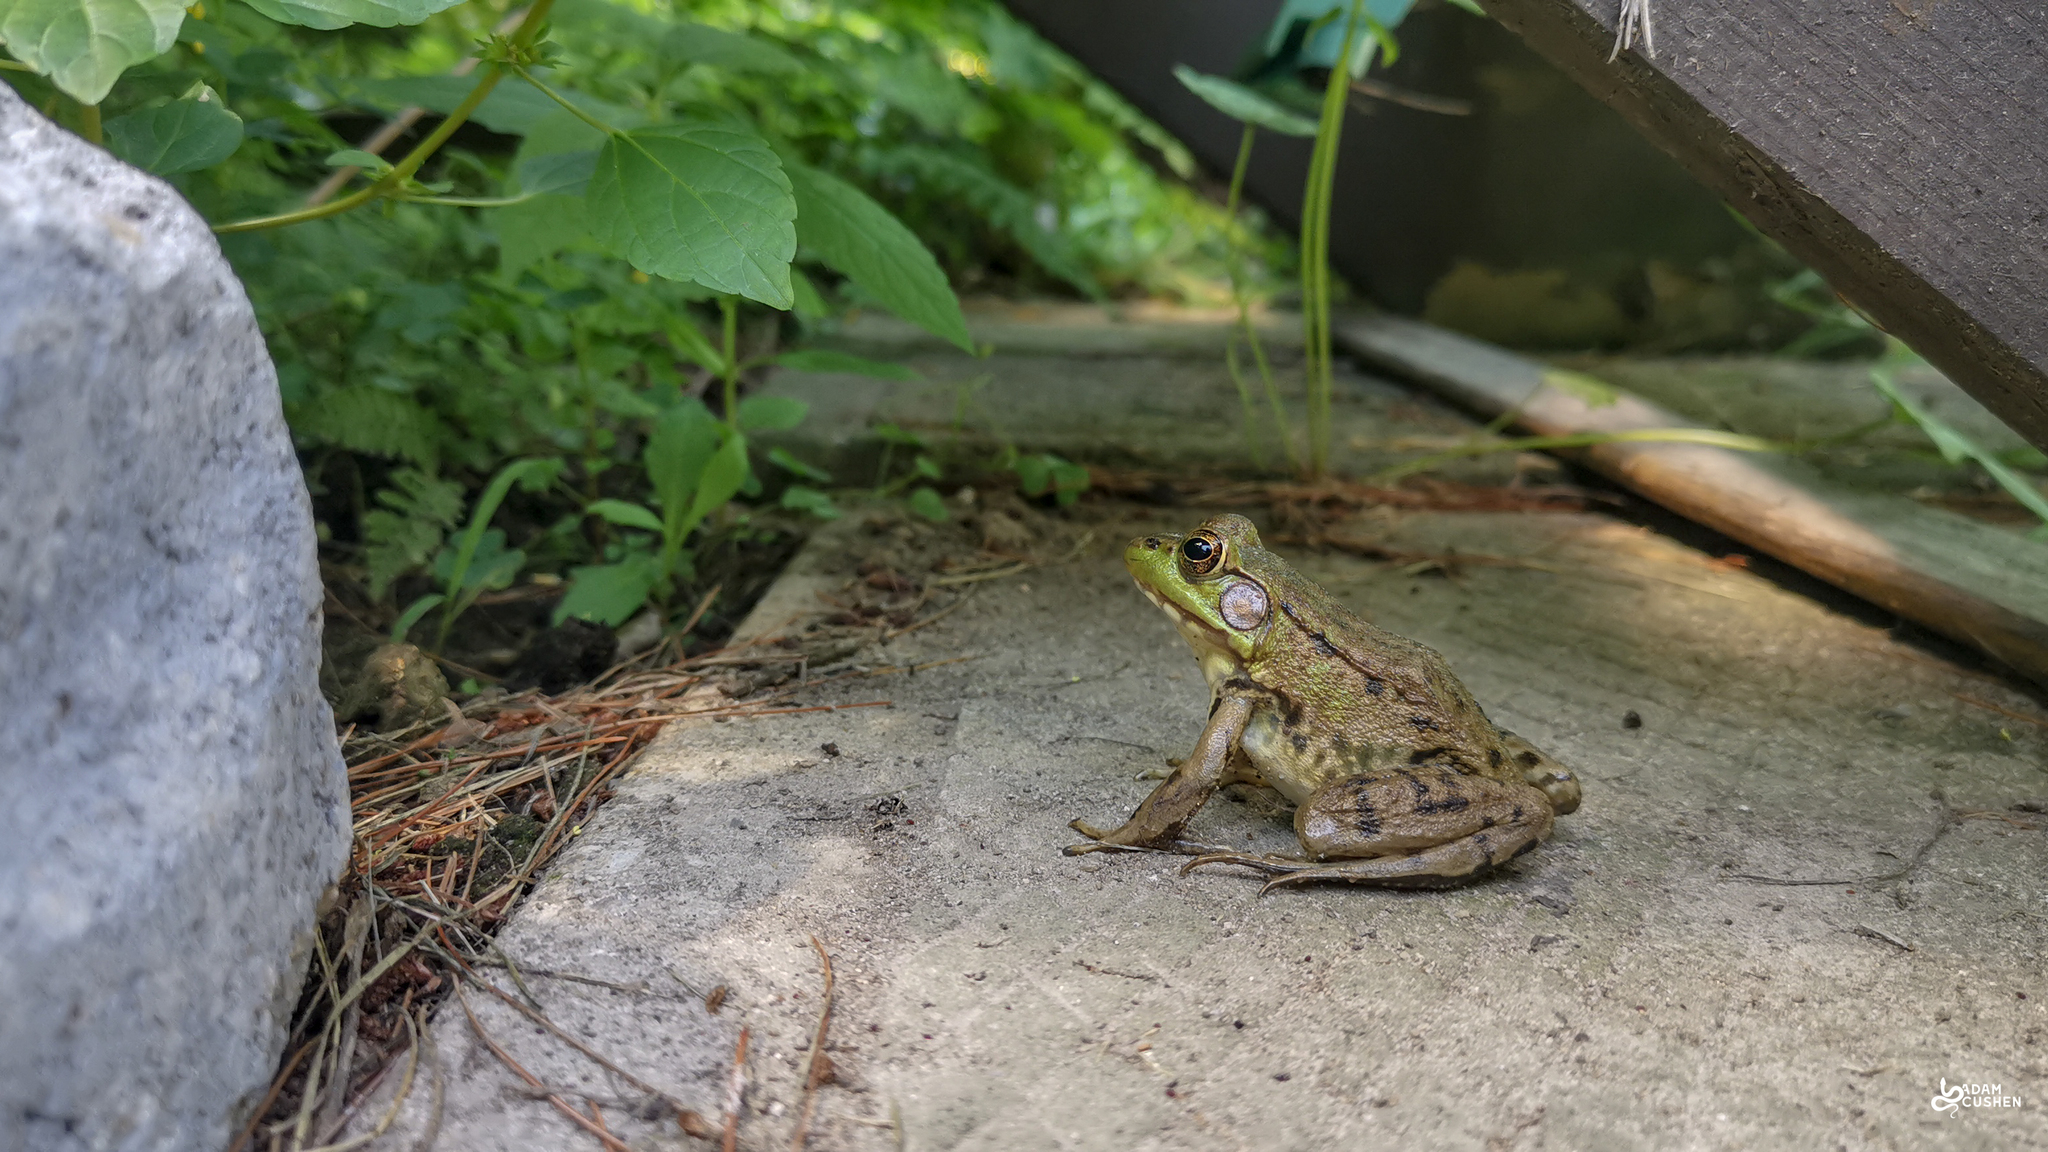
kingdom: Animalia
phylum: Chordata
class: Amphibia
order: Anura
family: Ranidae
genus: Lithobates
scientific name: Lithobates clamitans
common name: Green frog
